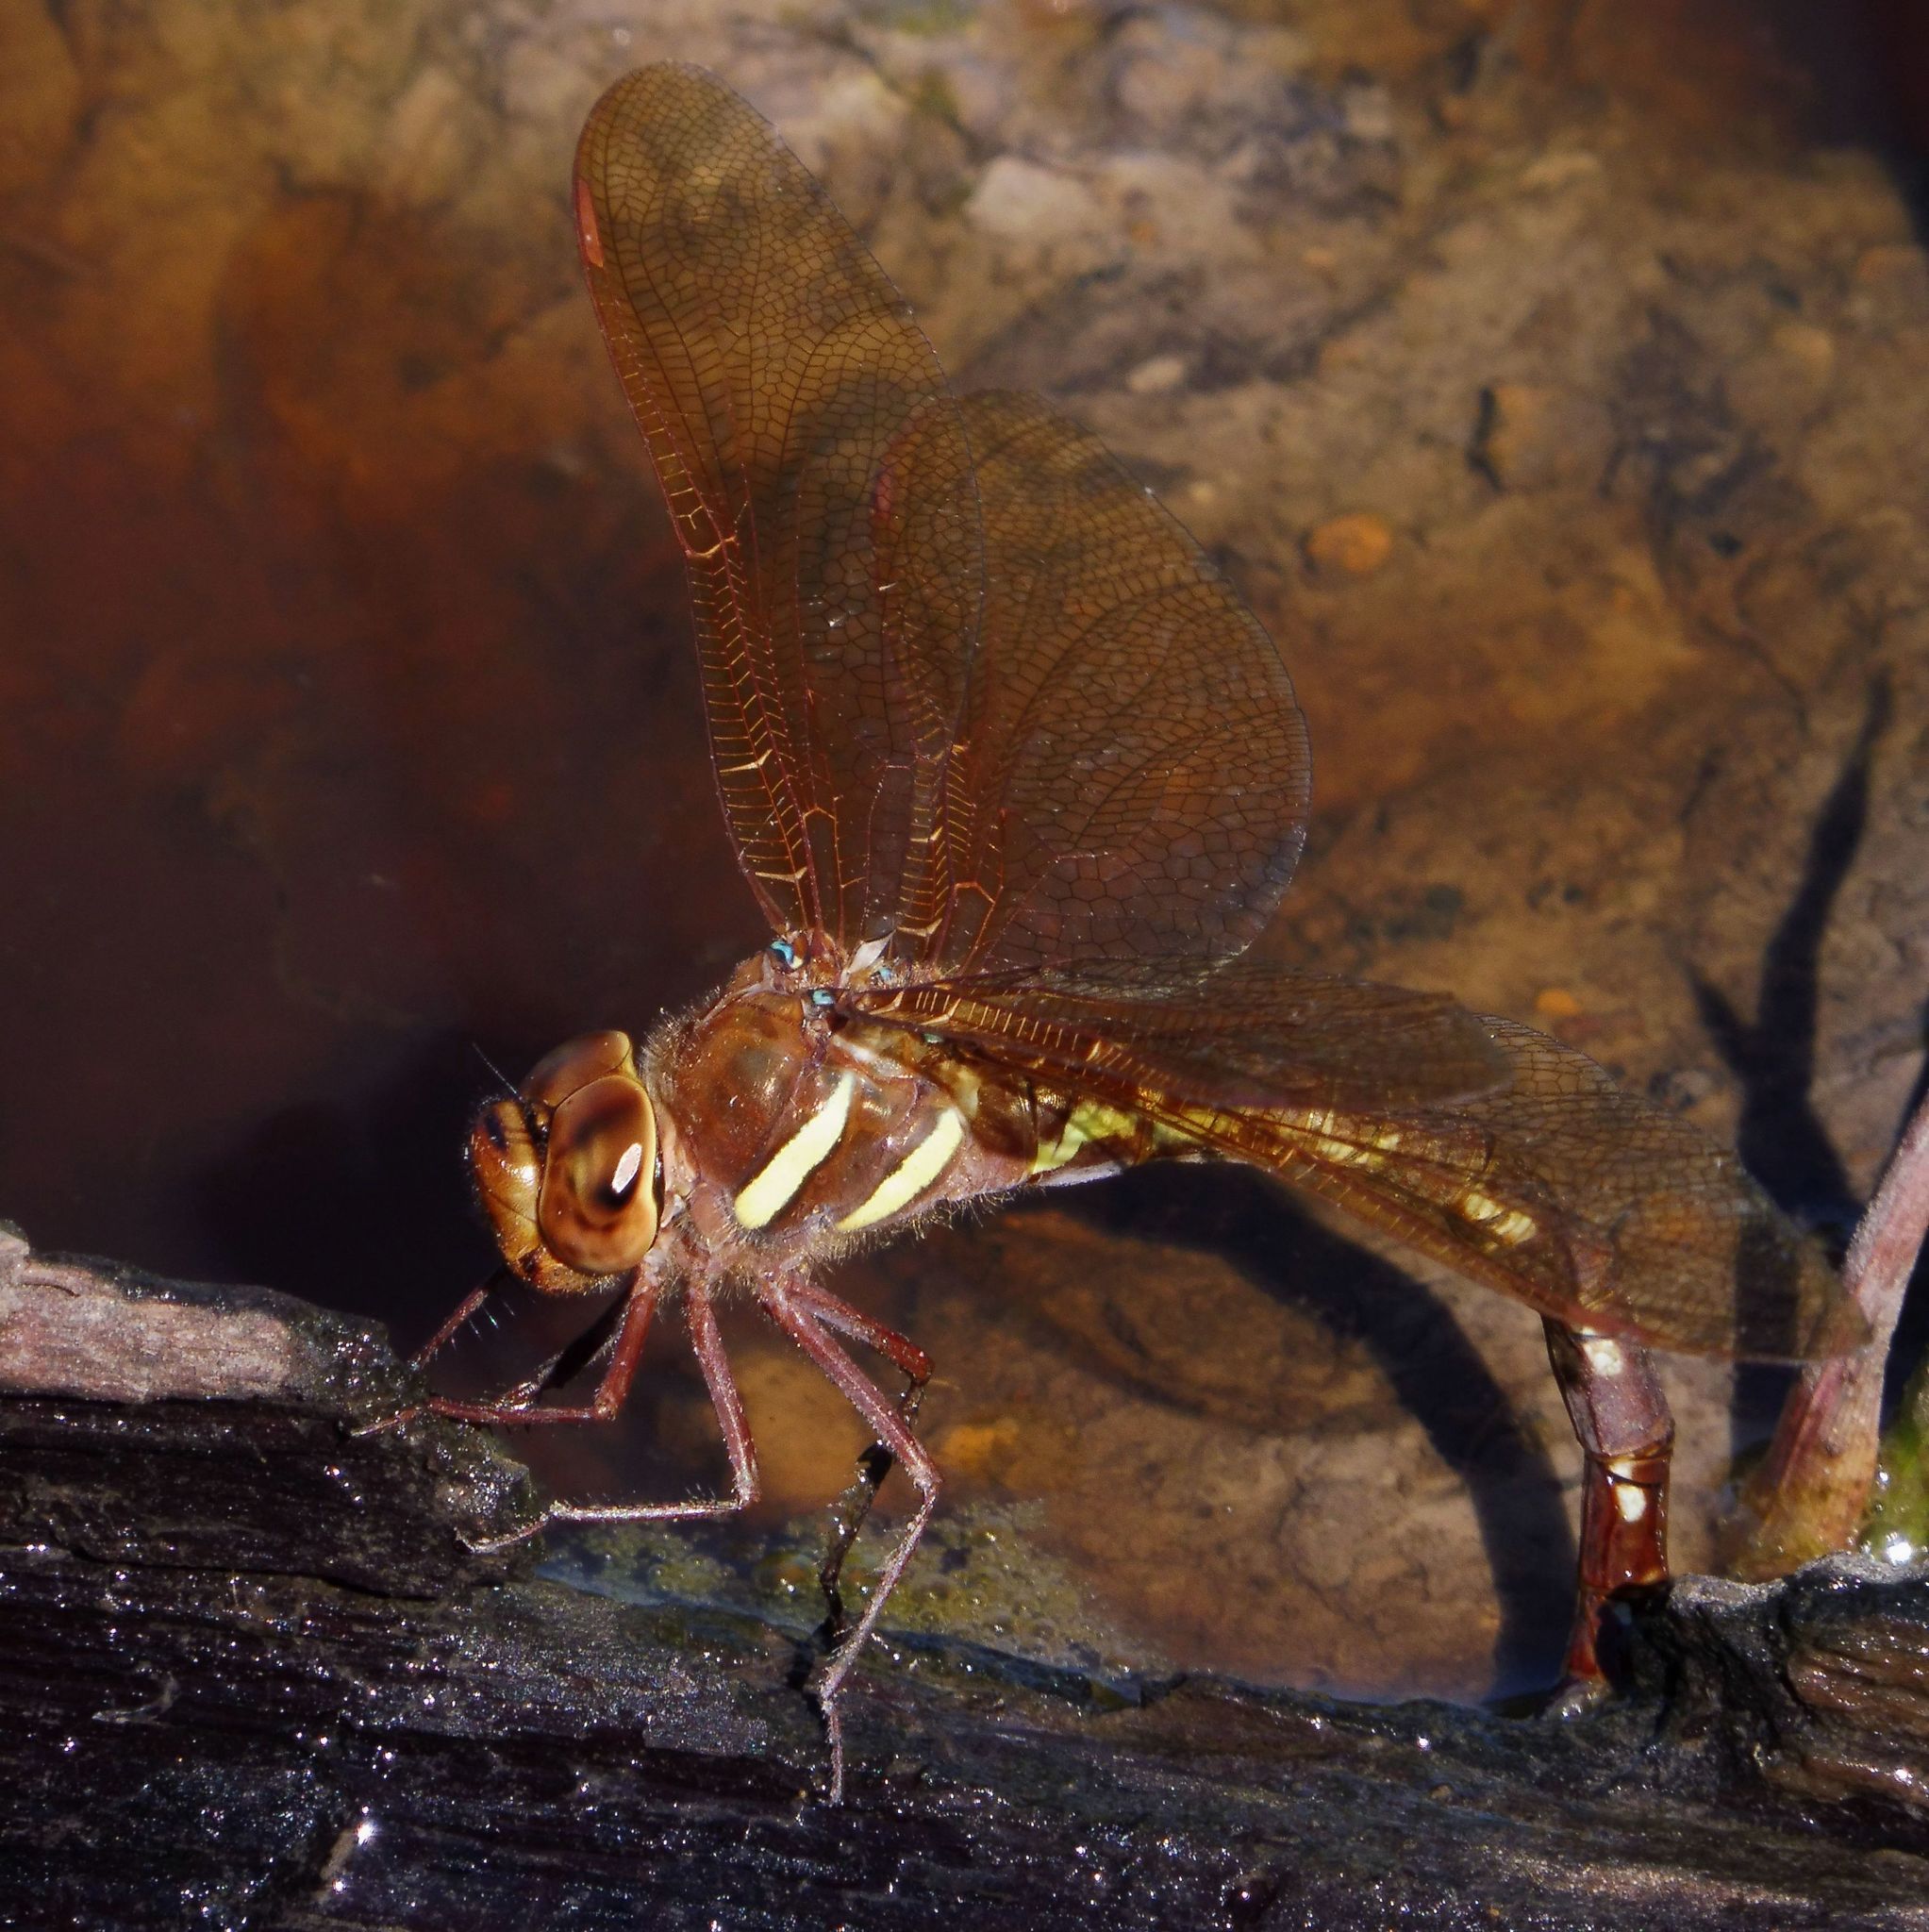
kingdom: Animalia
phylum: Arthropoda
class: Insecta
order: Odonata
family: Aeshnidae
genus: Aeshna
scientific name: Aeshna grandis
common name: Brown hawker
